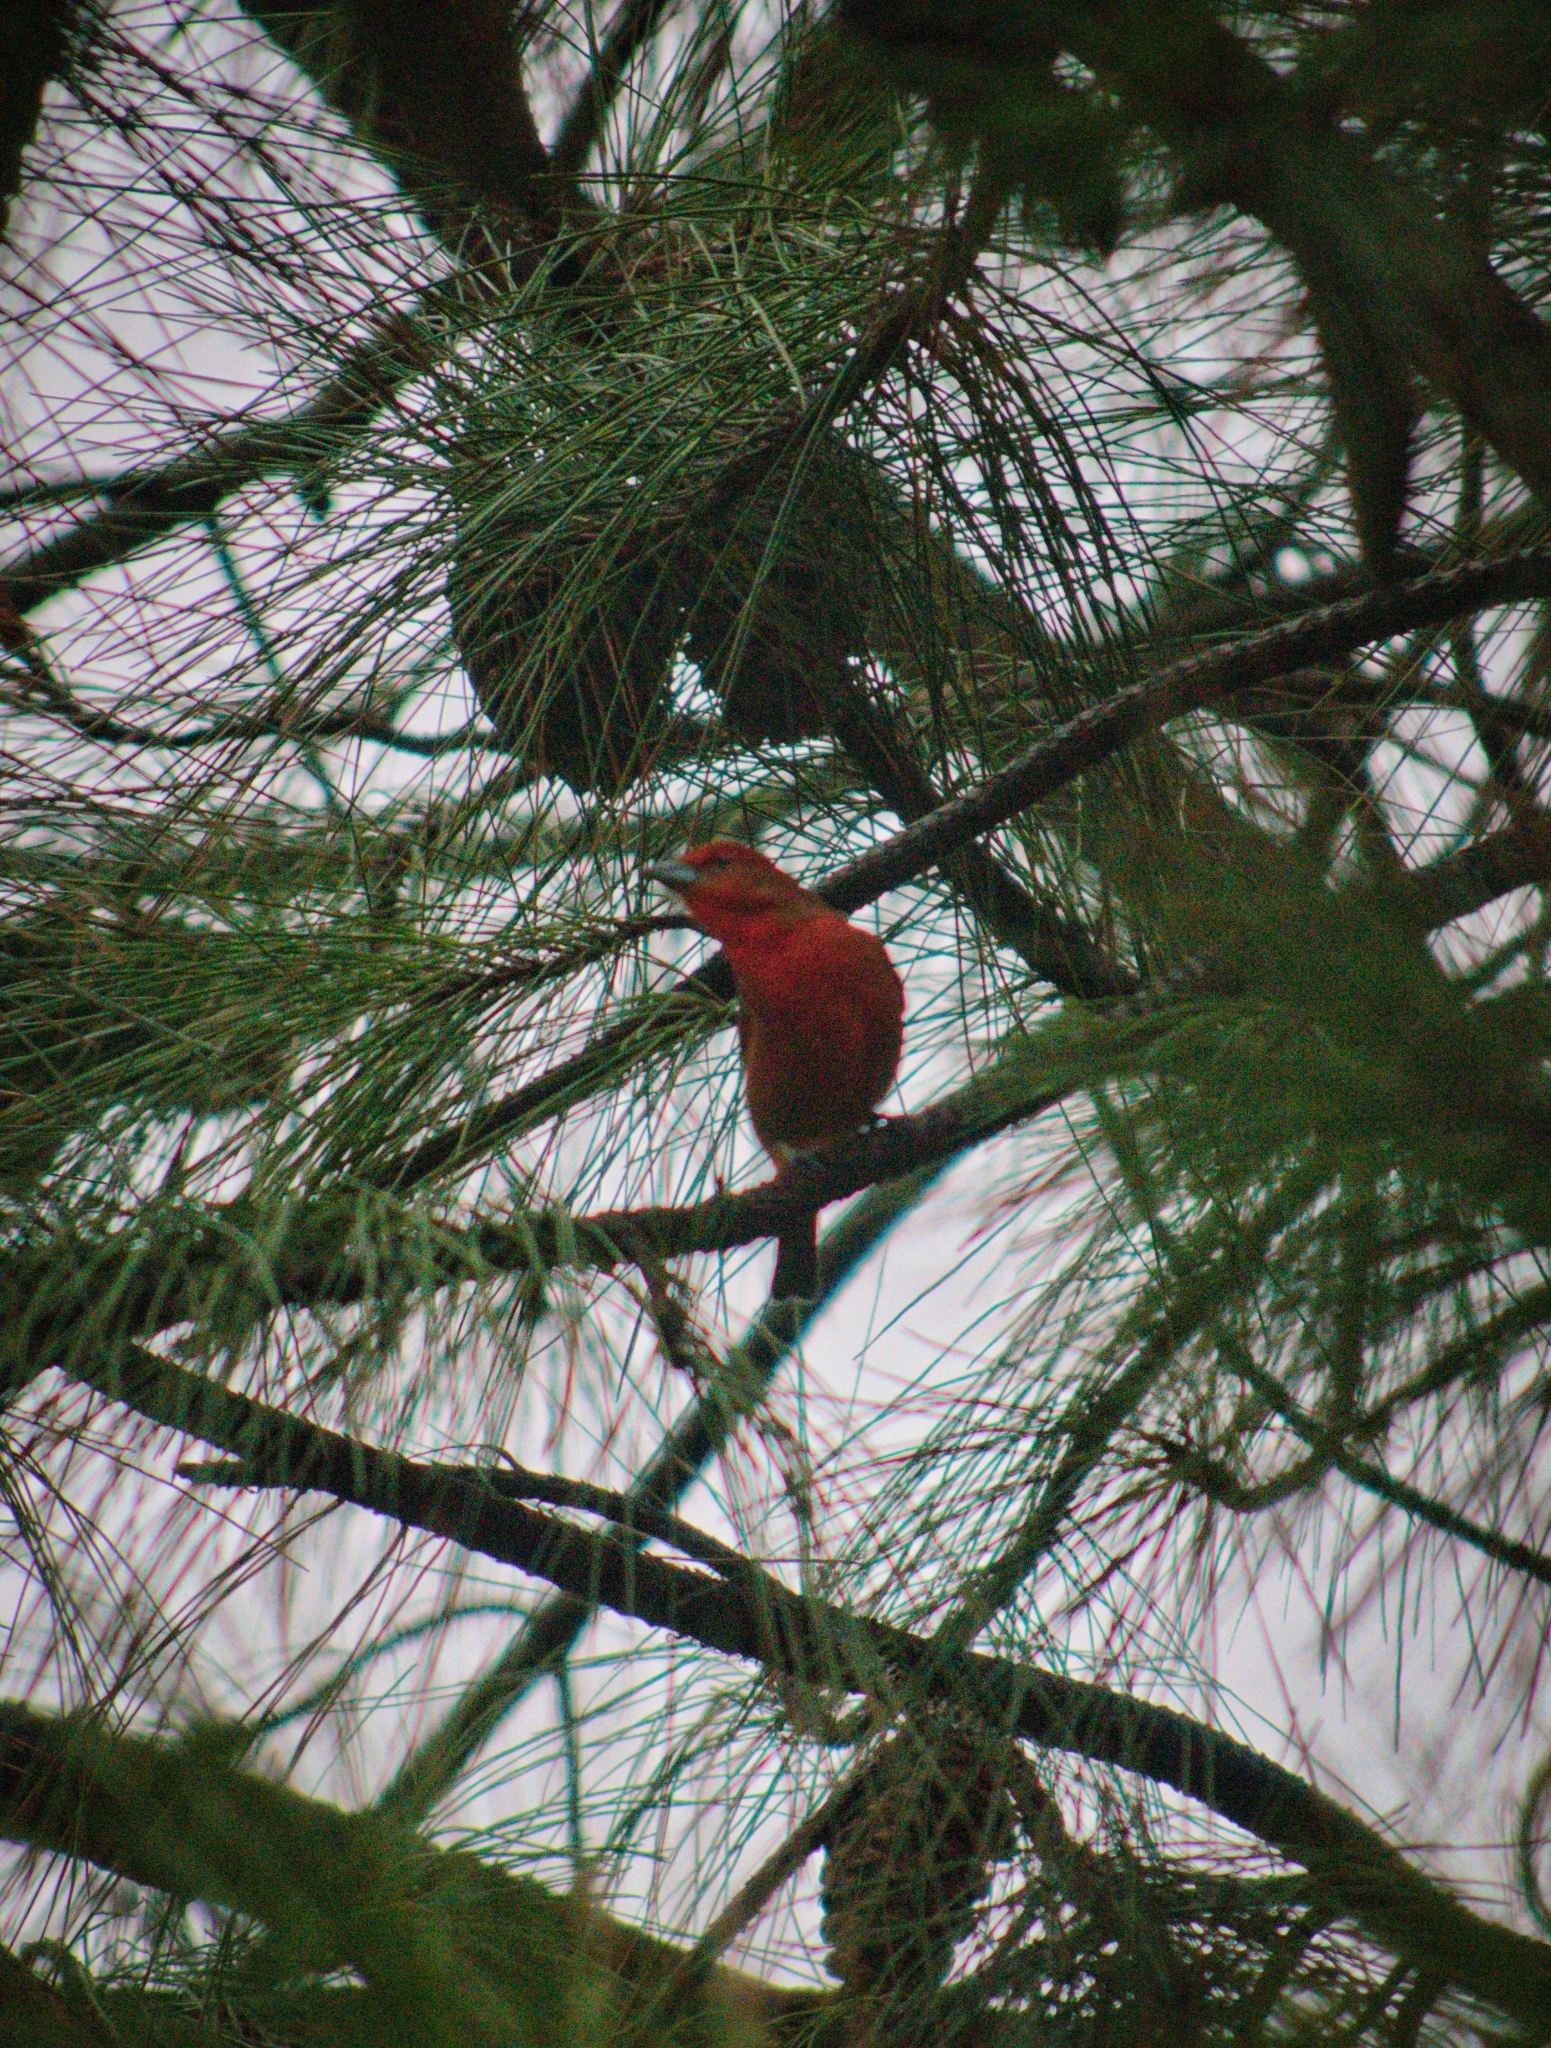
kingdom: Animalia
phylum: Chordata
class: Aves
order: Passeriformes
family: Cardinalidae
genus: Piranga
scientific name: Piranga flava
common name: Red tanager
